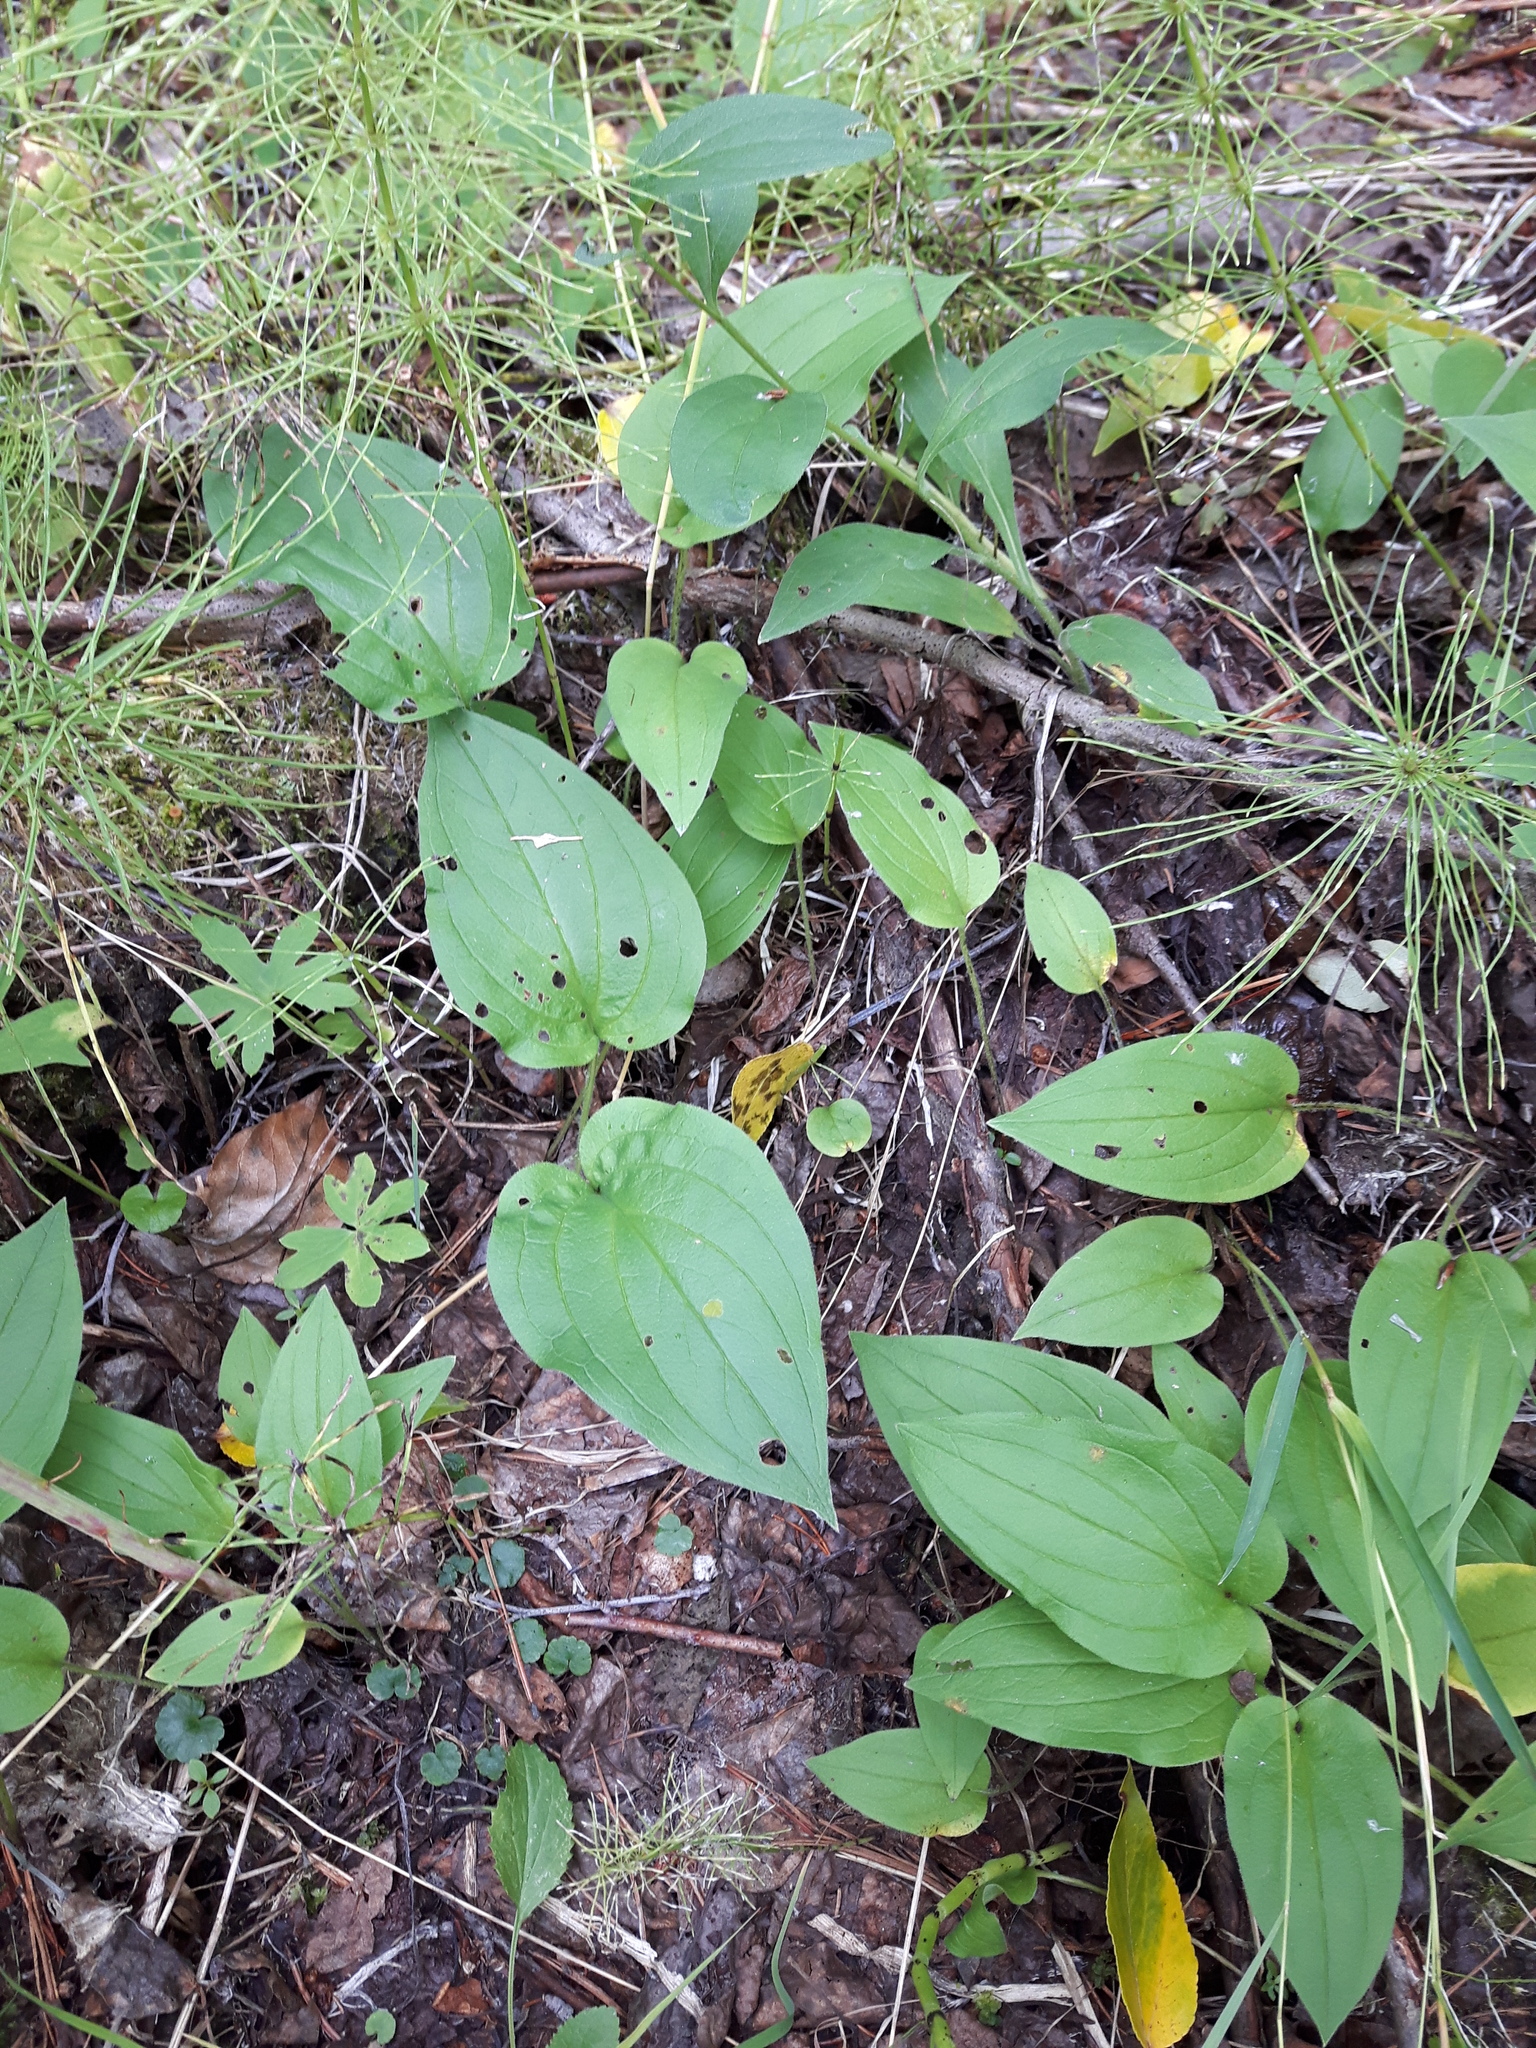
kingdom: Plantae
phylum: Tracheophyta
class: Magnoliopsida
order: Boraginales
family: Boraginaceae
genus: Mertensia
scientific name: Mertensia paniculata
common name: Panicled bluebells
